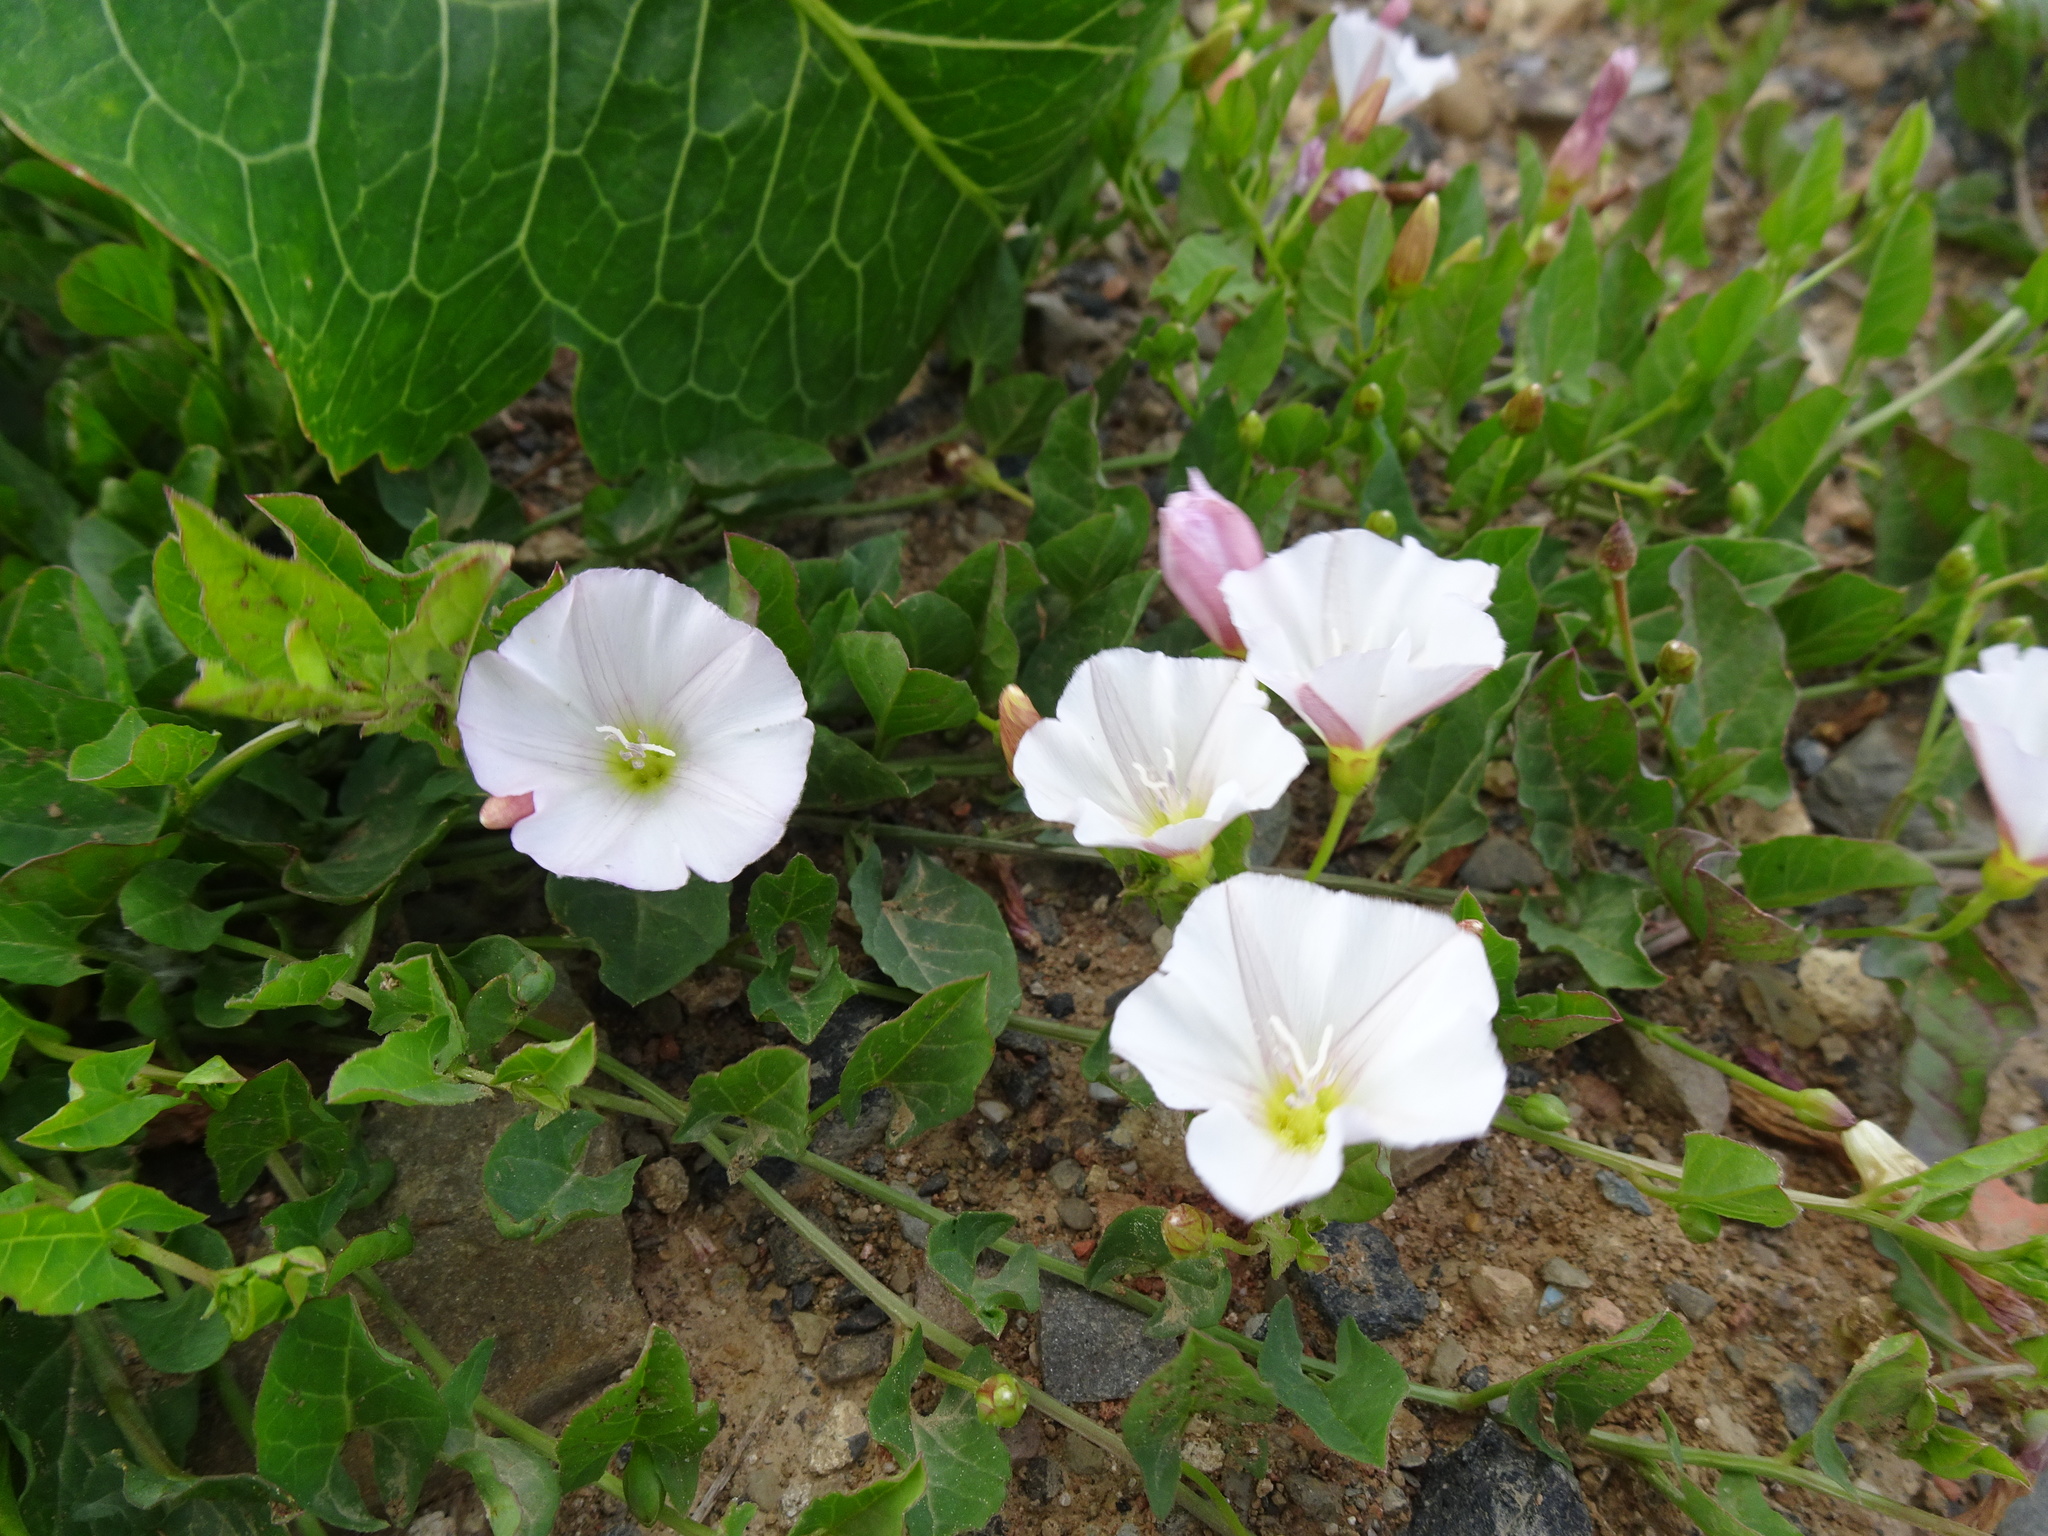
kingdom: Plantae
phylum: Tracheophyta
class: Magnoliopsida
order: Solanales
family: Convolvulaceae
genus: Convolvulus
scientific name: Convolvulus arvensis
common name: Field bindweed
